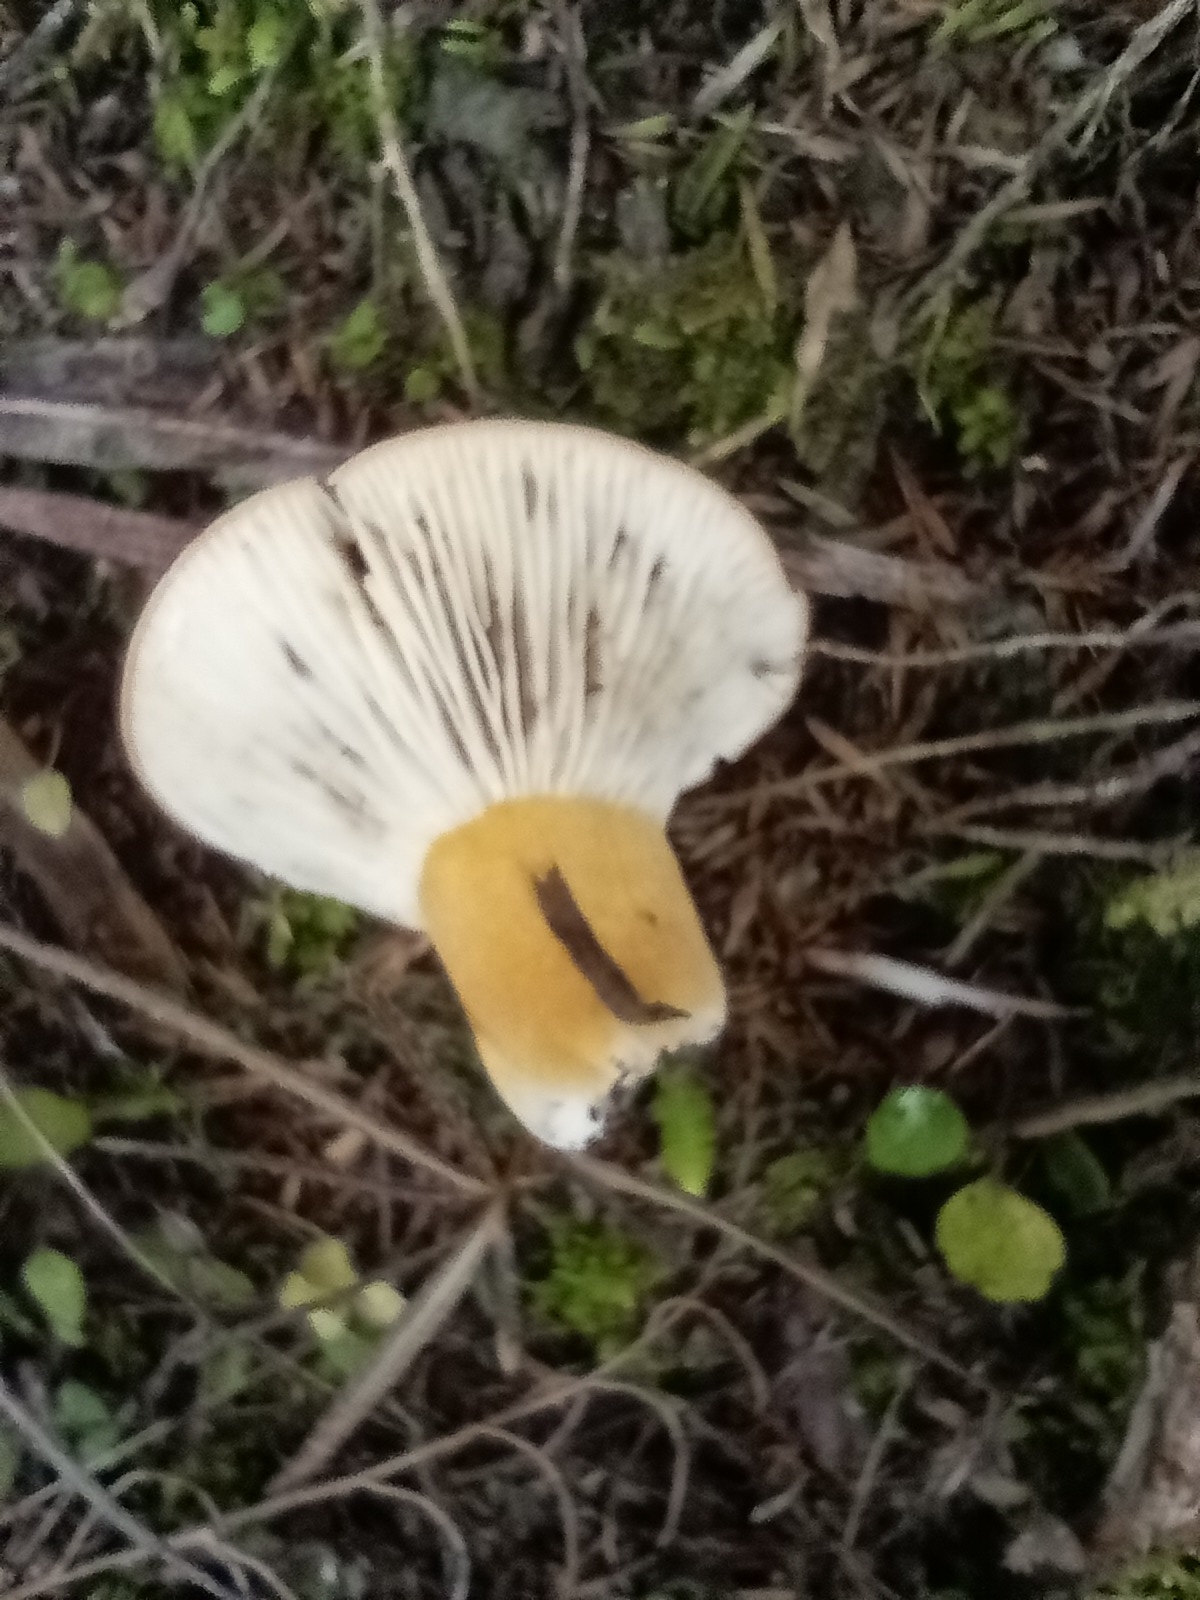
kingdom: Fungi
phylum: Basidiomycota
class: Agaricomycetes
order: Russulales
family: Russulaceae
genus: Lactifluus
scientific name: Lactifluus clarkeae
